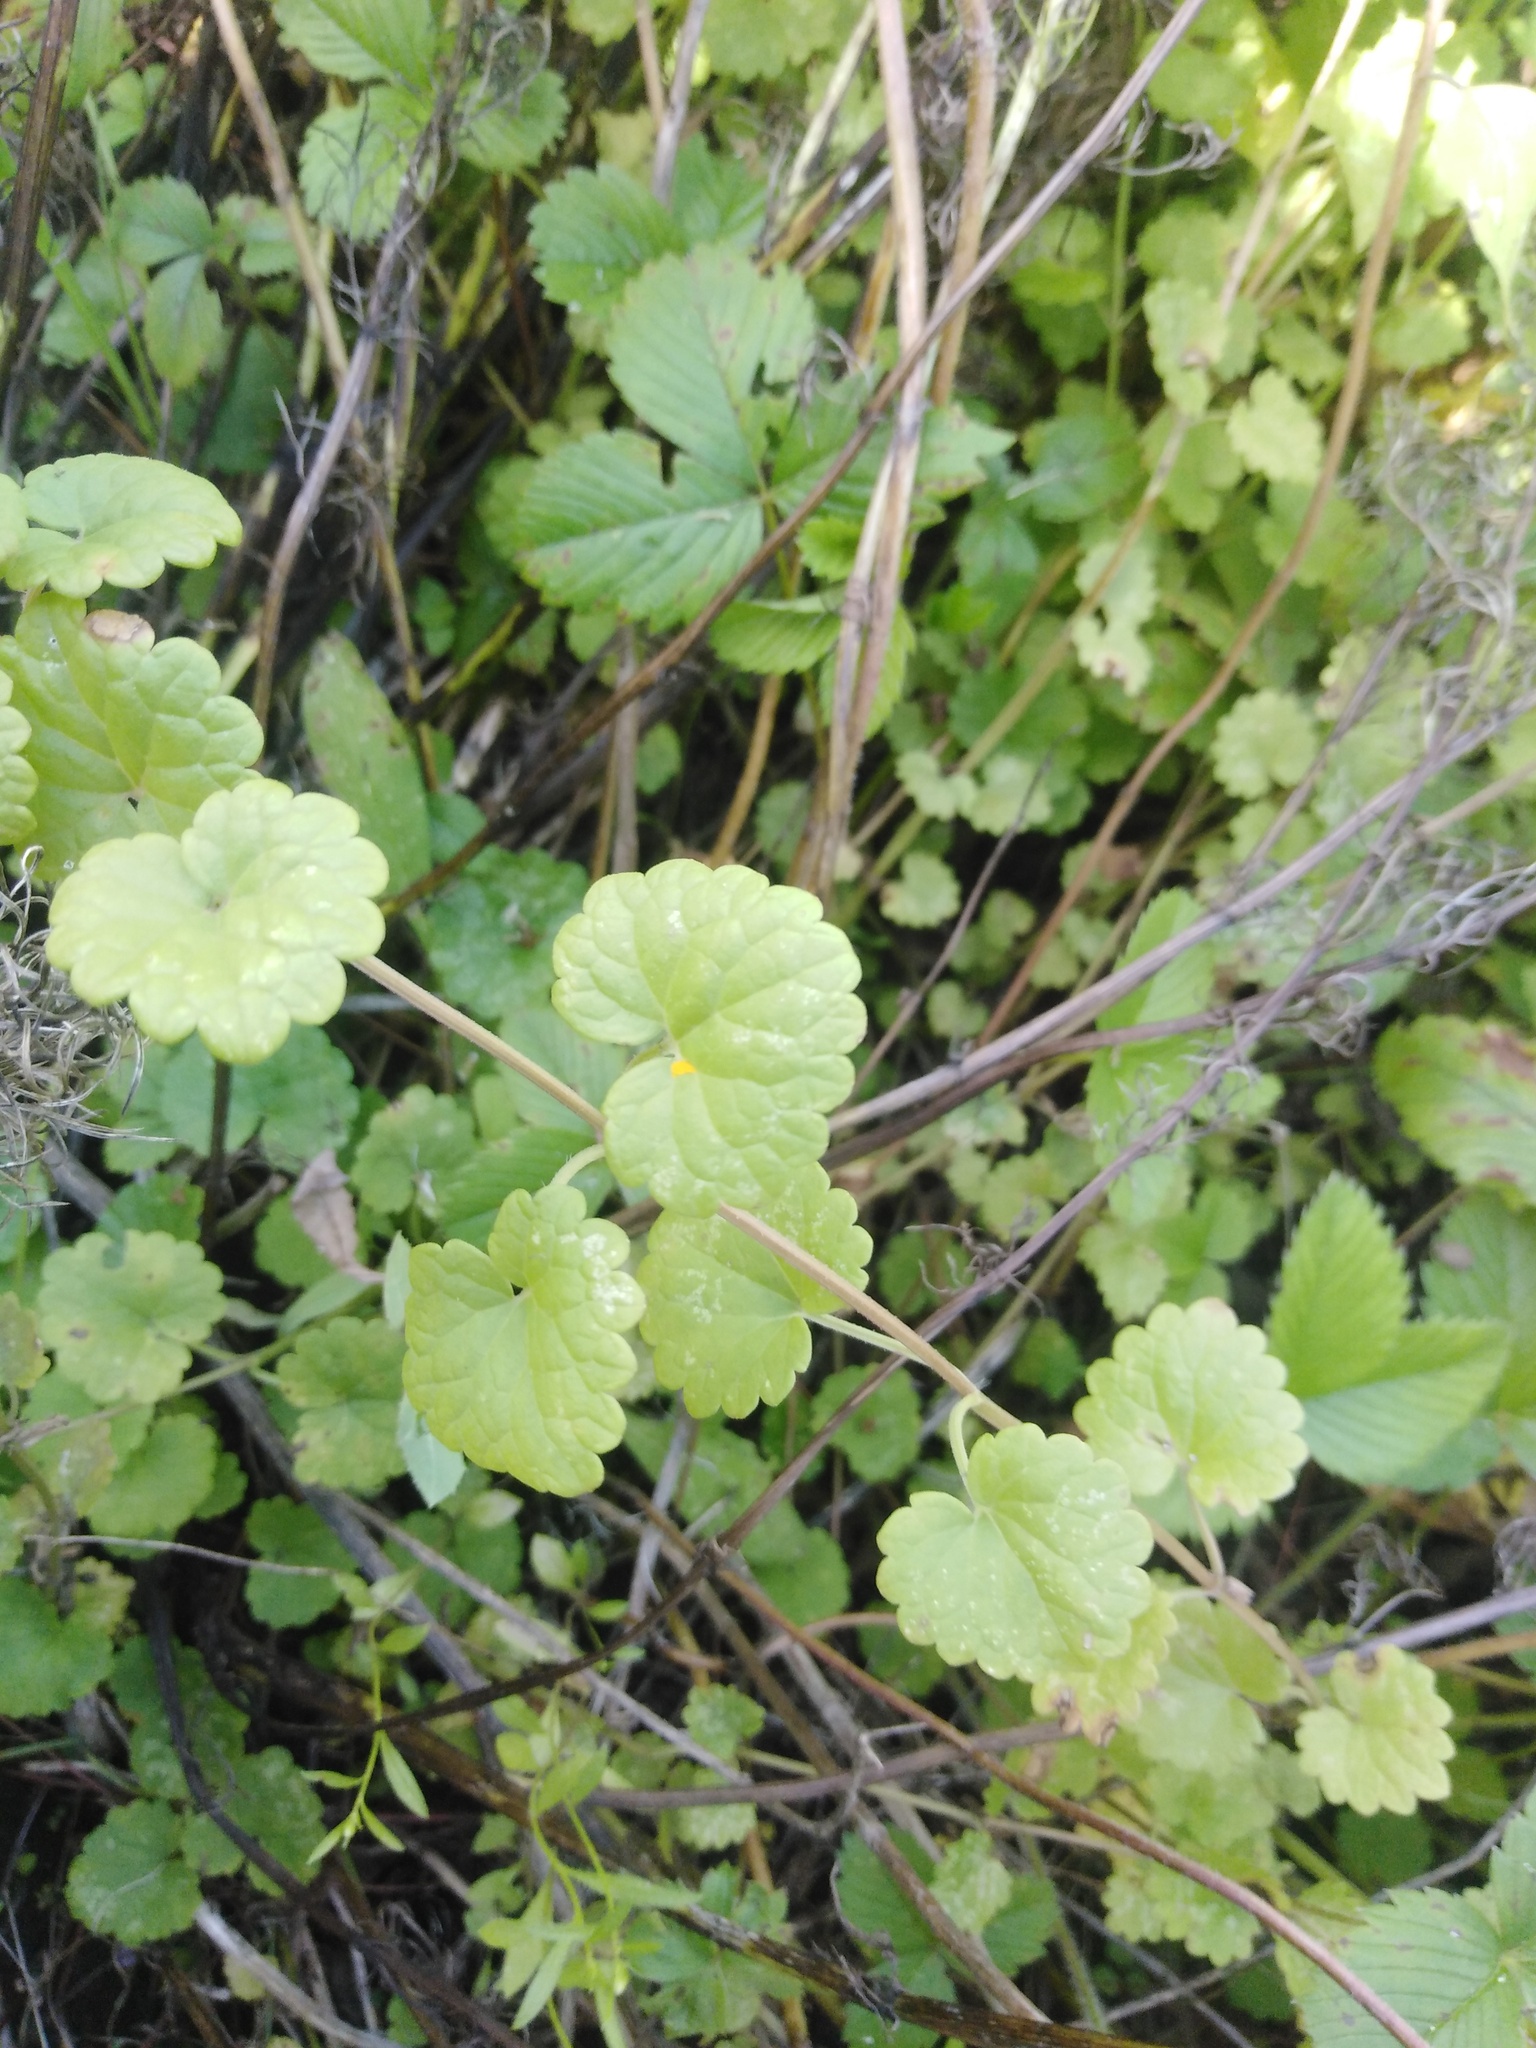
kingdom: Plantae
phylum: Tracheophyta
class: Magnoliopsida
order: Lamiales
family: Lamiaceae
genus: Glechoma
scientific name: Glechoma hederacea
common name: Ground ivy
